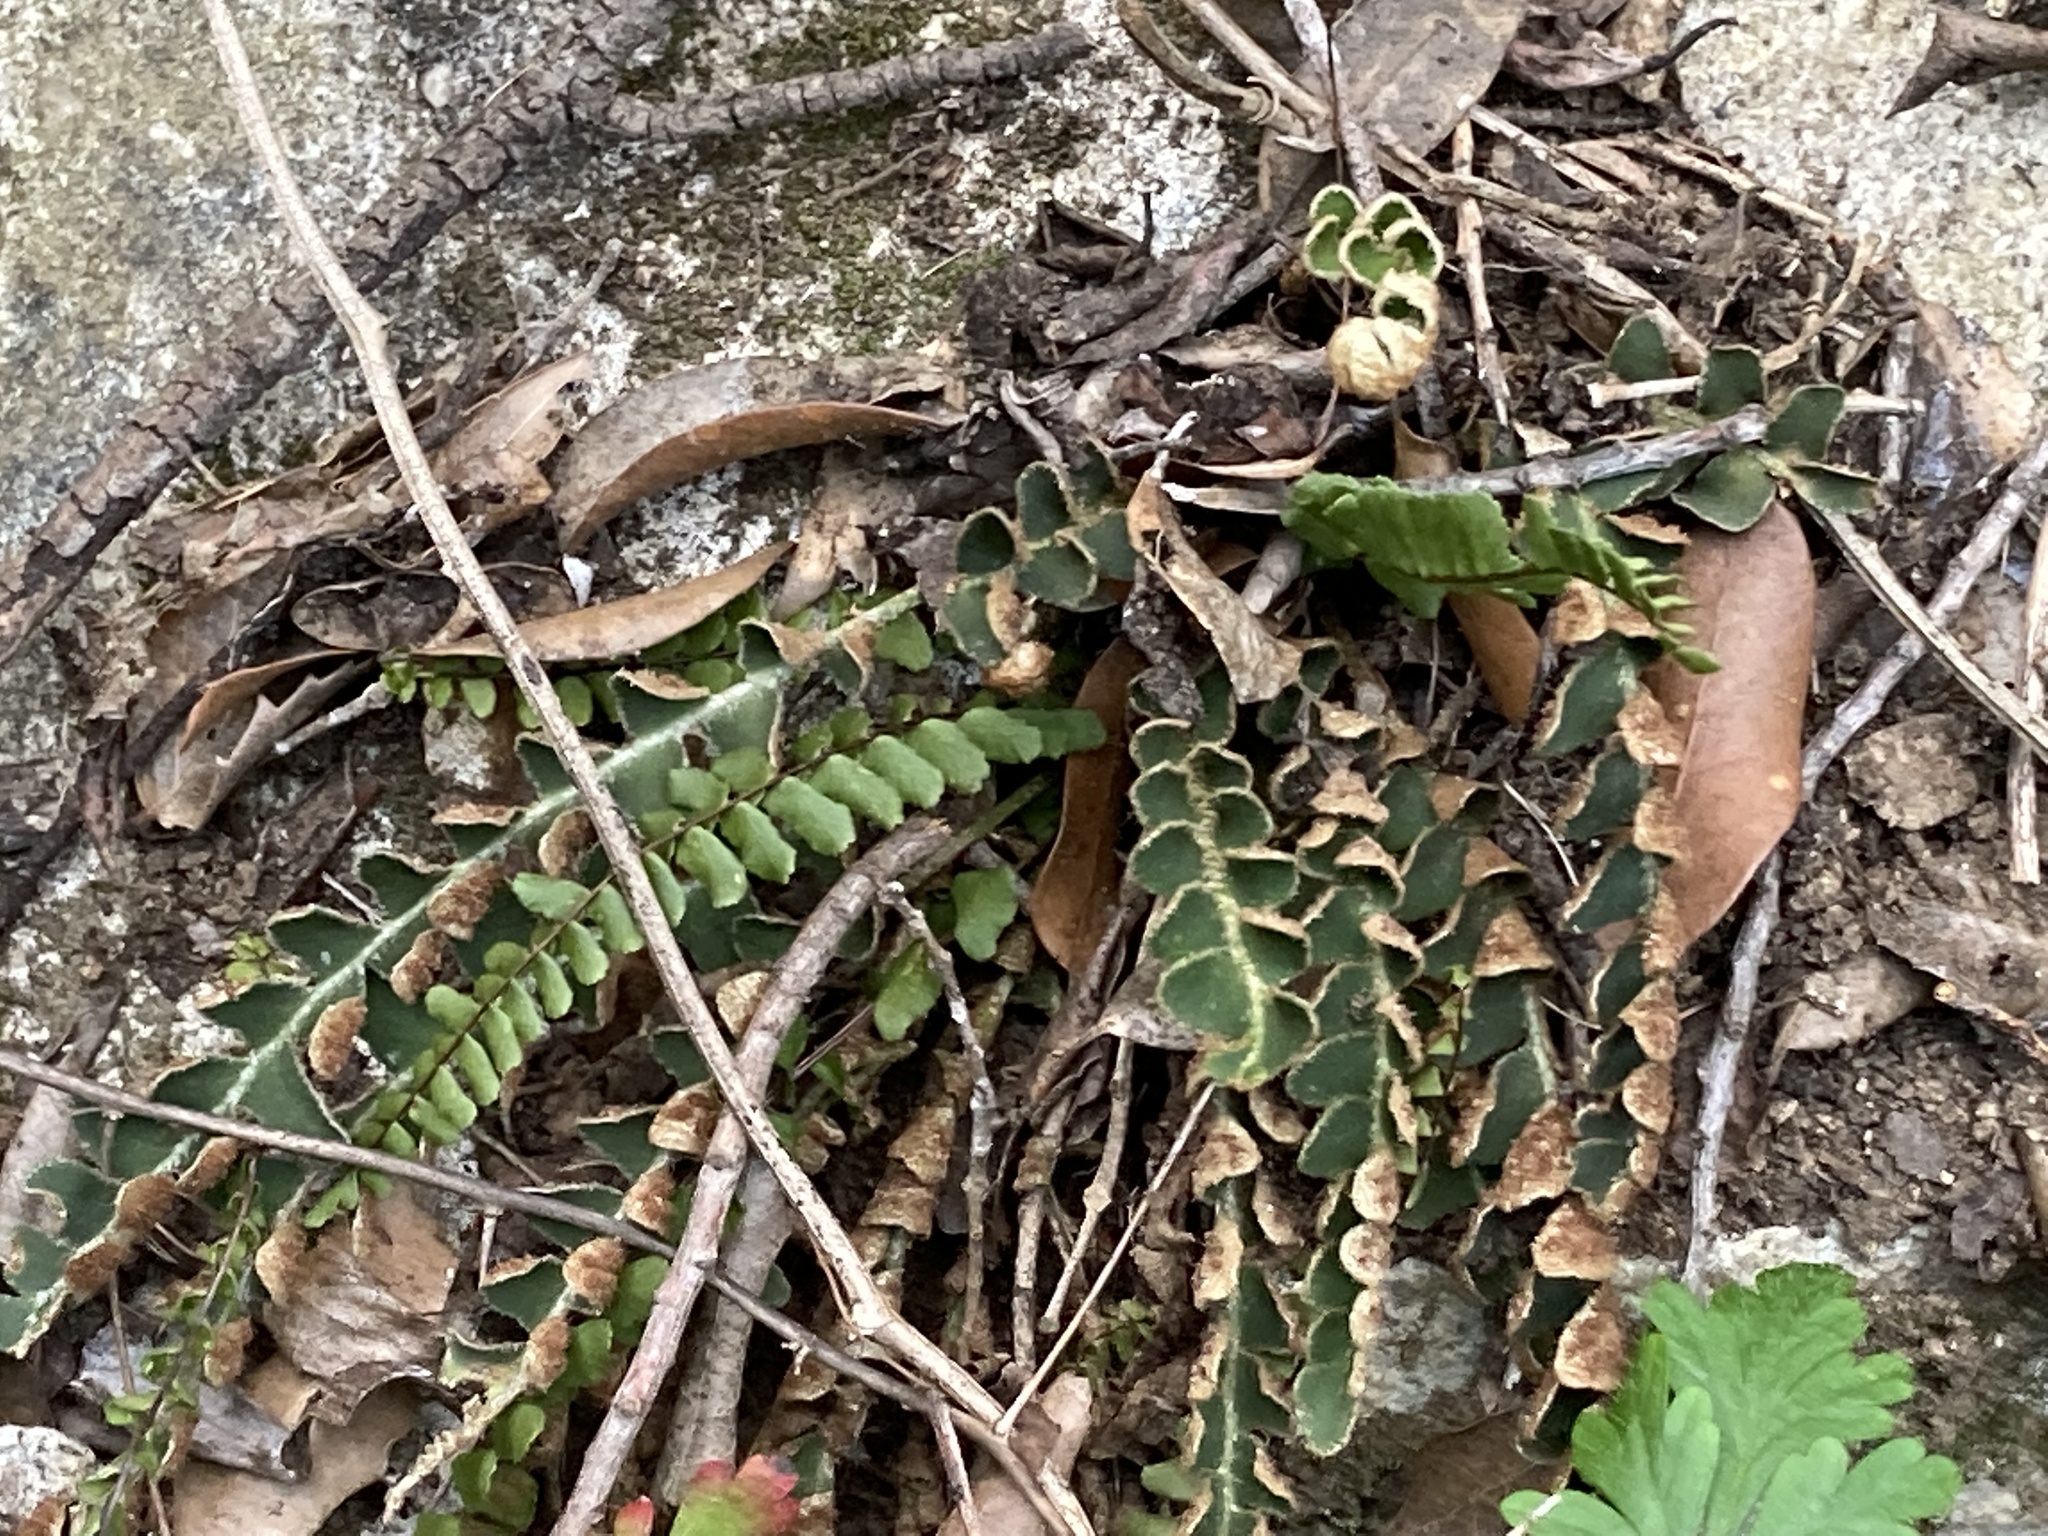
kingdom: Plantae
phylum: Tracheophyta
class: Polypodiopsida
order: Polypodiales
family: Aspleniaceae
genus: Asplenium
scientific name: Asplenium ceterach
